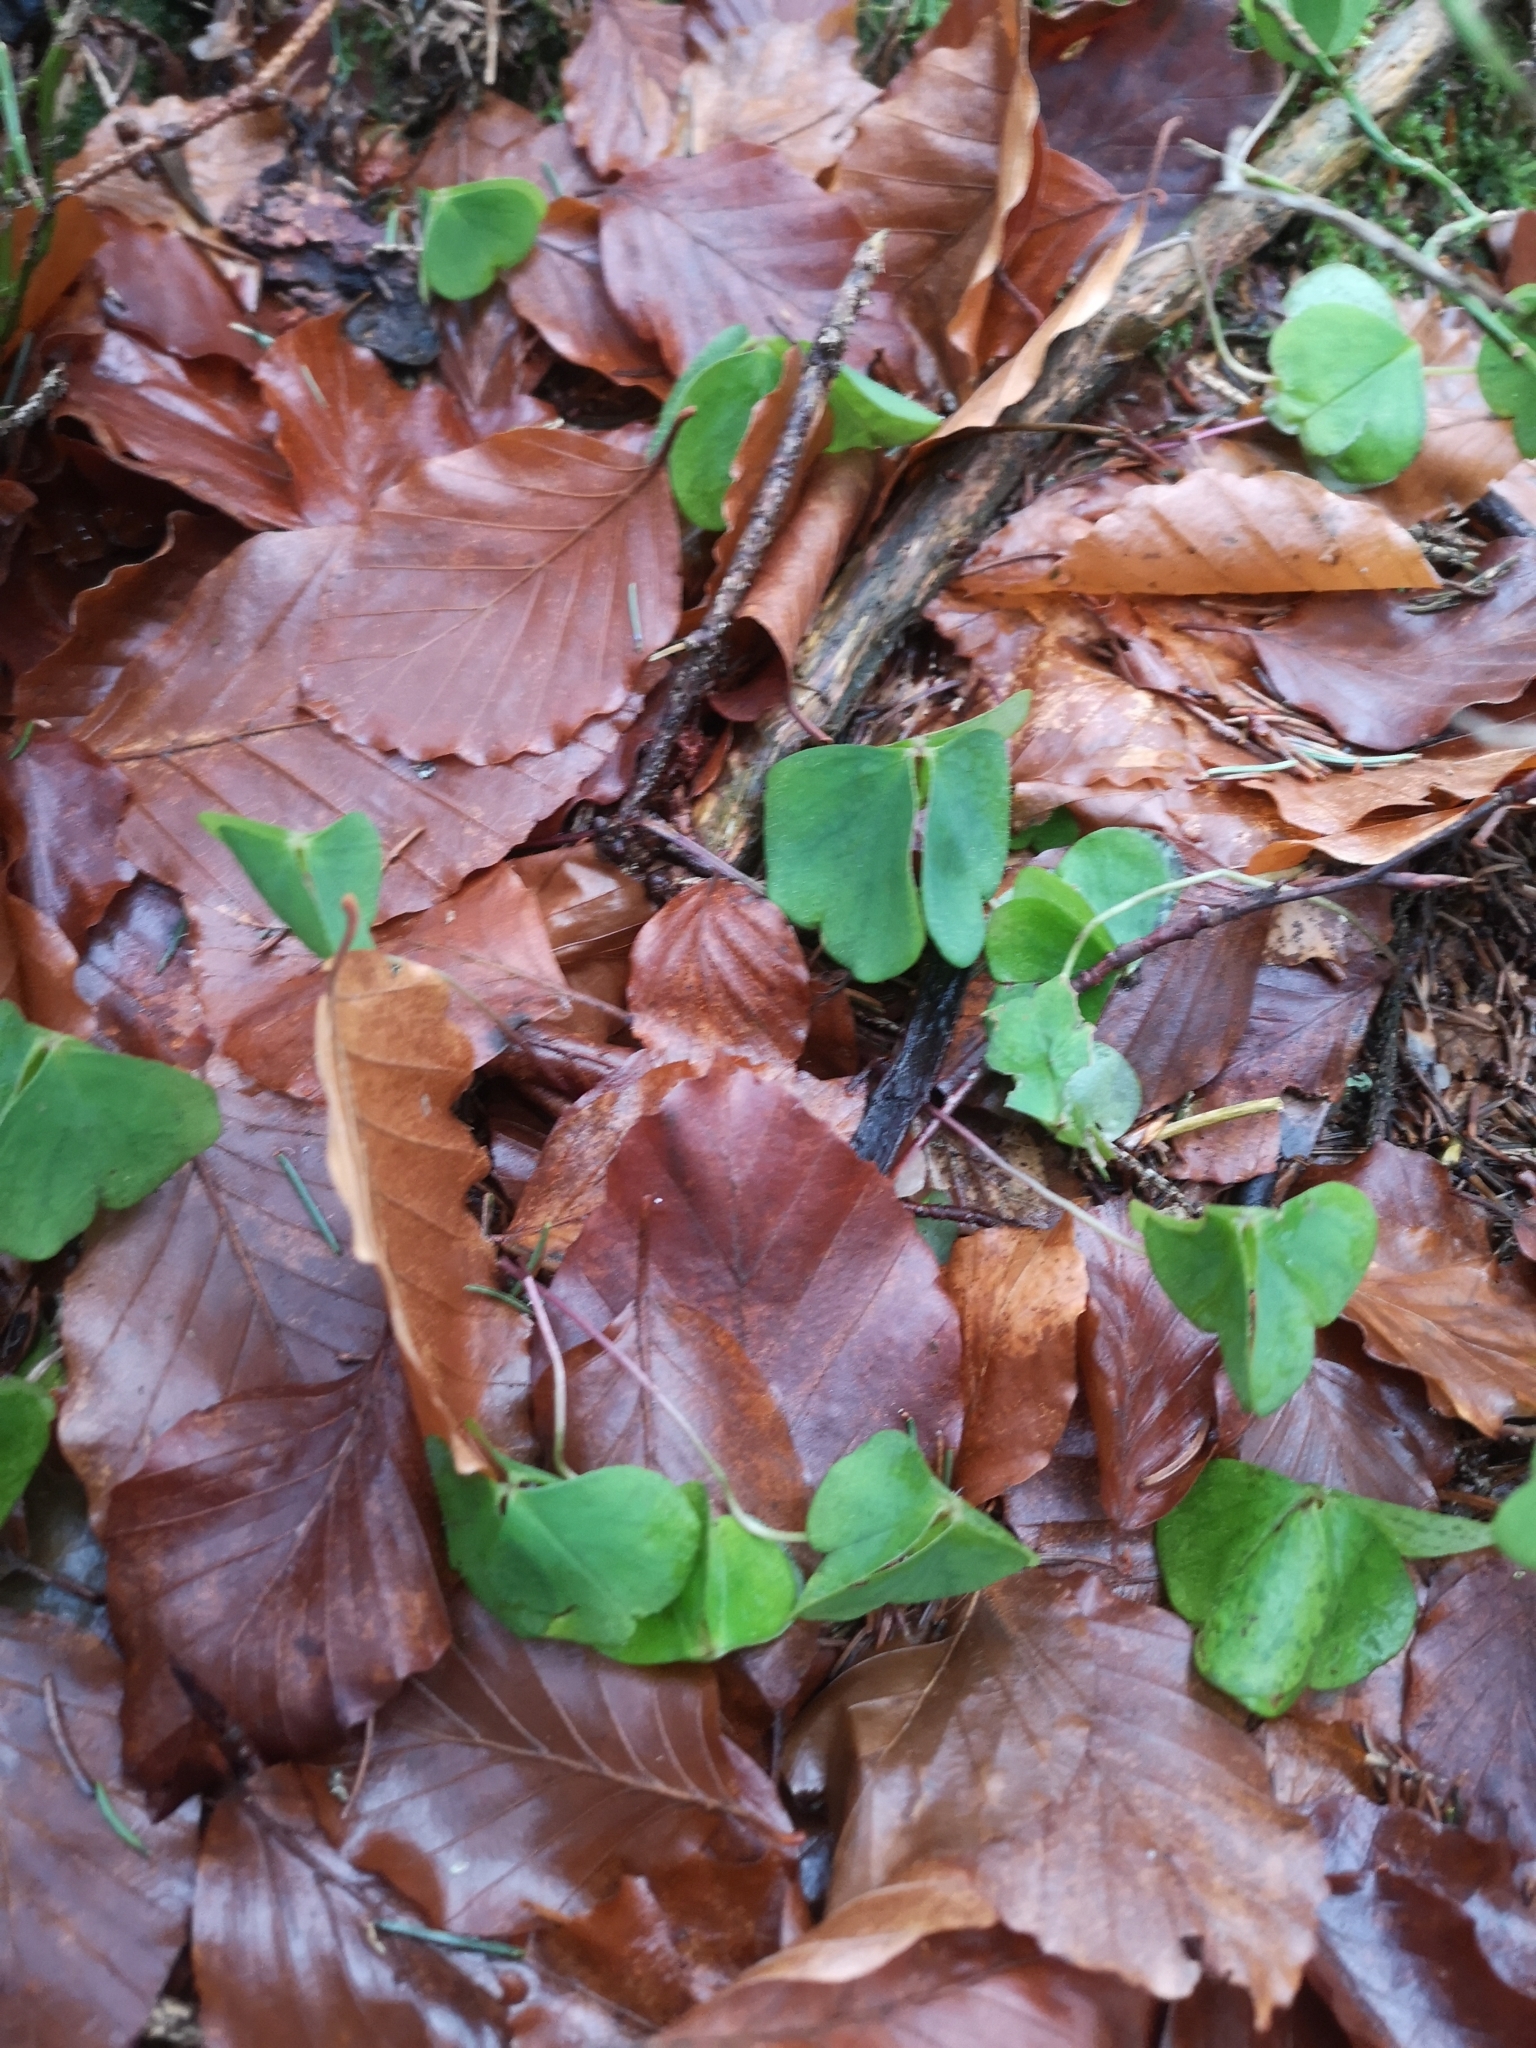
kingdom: Plantae
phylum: Tracheophyta
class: Magnoliopsida
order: Oxalidales
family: Oxalidaceae
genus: Oxalis
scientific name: Oxalis acetosella
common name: Wood-sorrel
